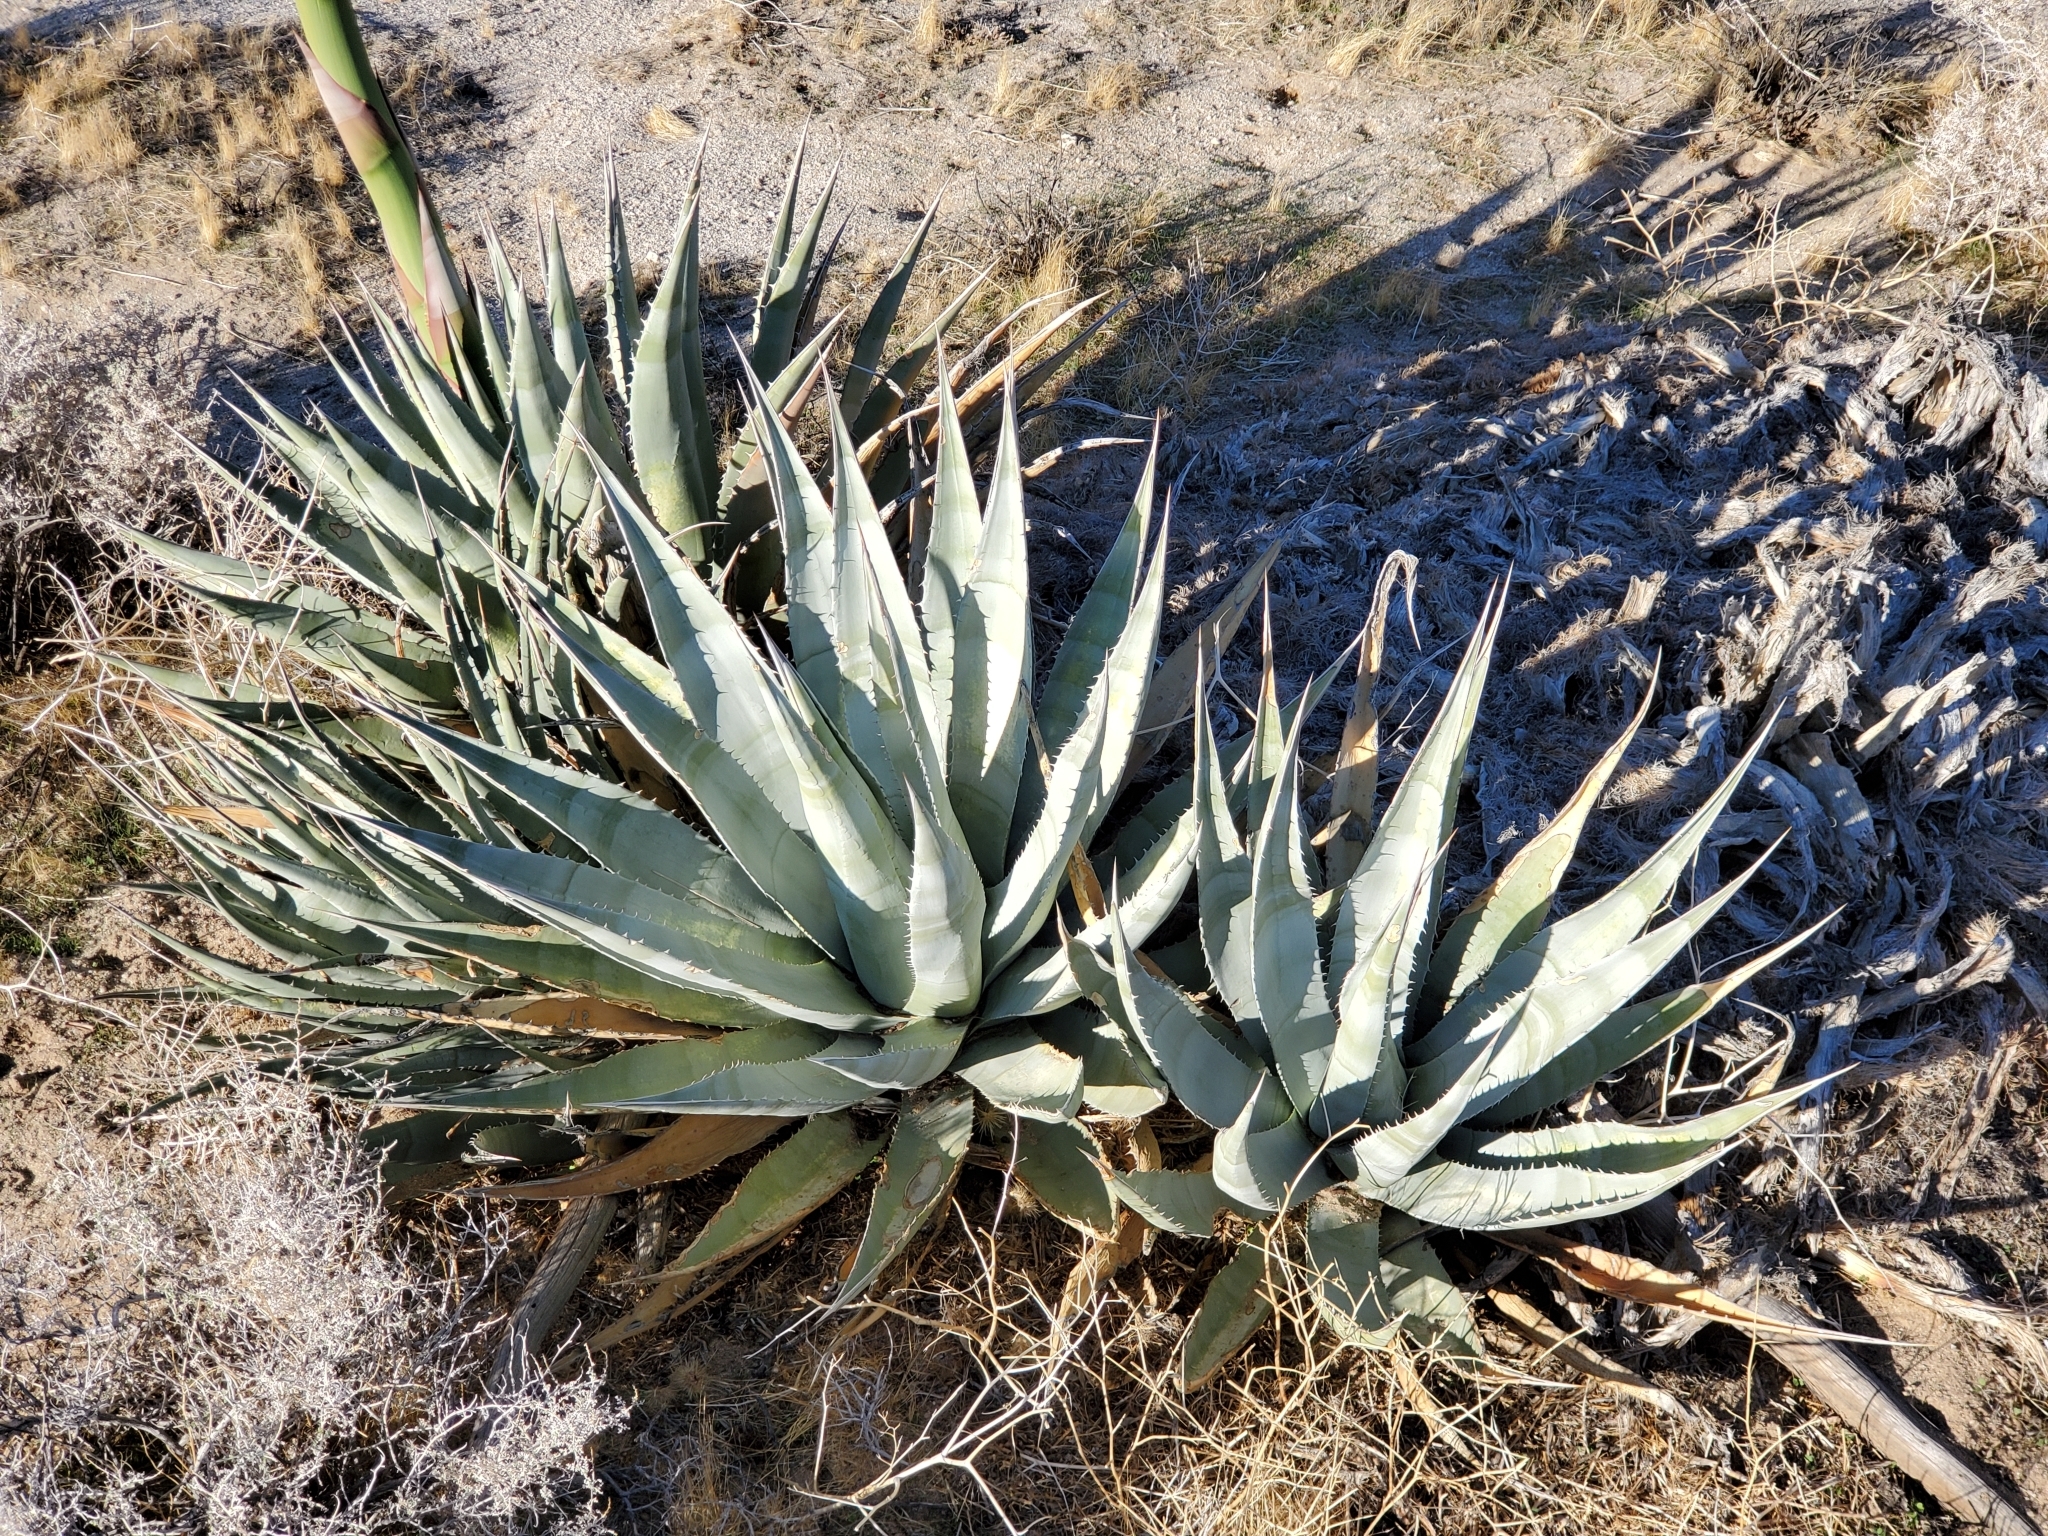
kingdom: Plantae
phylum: Tracheophyta
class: Liliopsida
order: Asparagales
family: Asparagaceae
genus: Agave
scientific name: Agave deserti
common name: Desert agave
